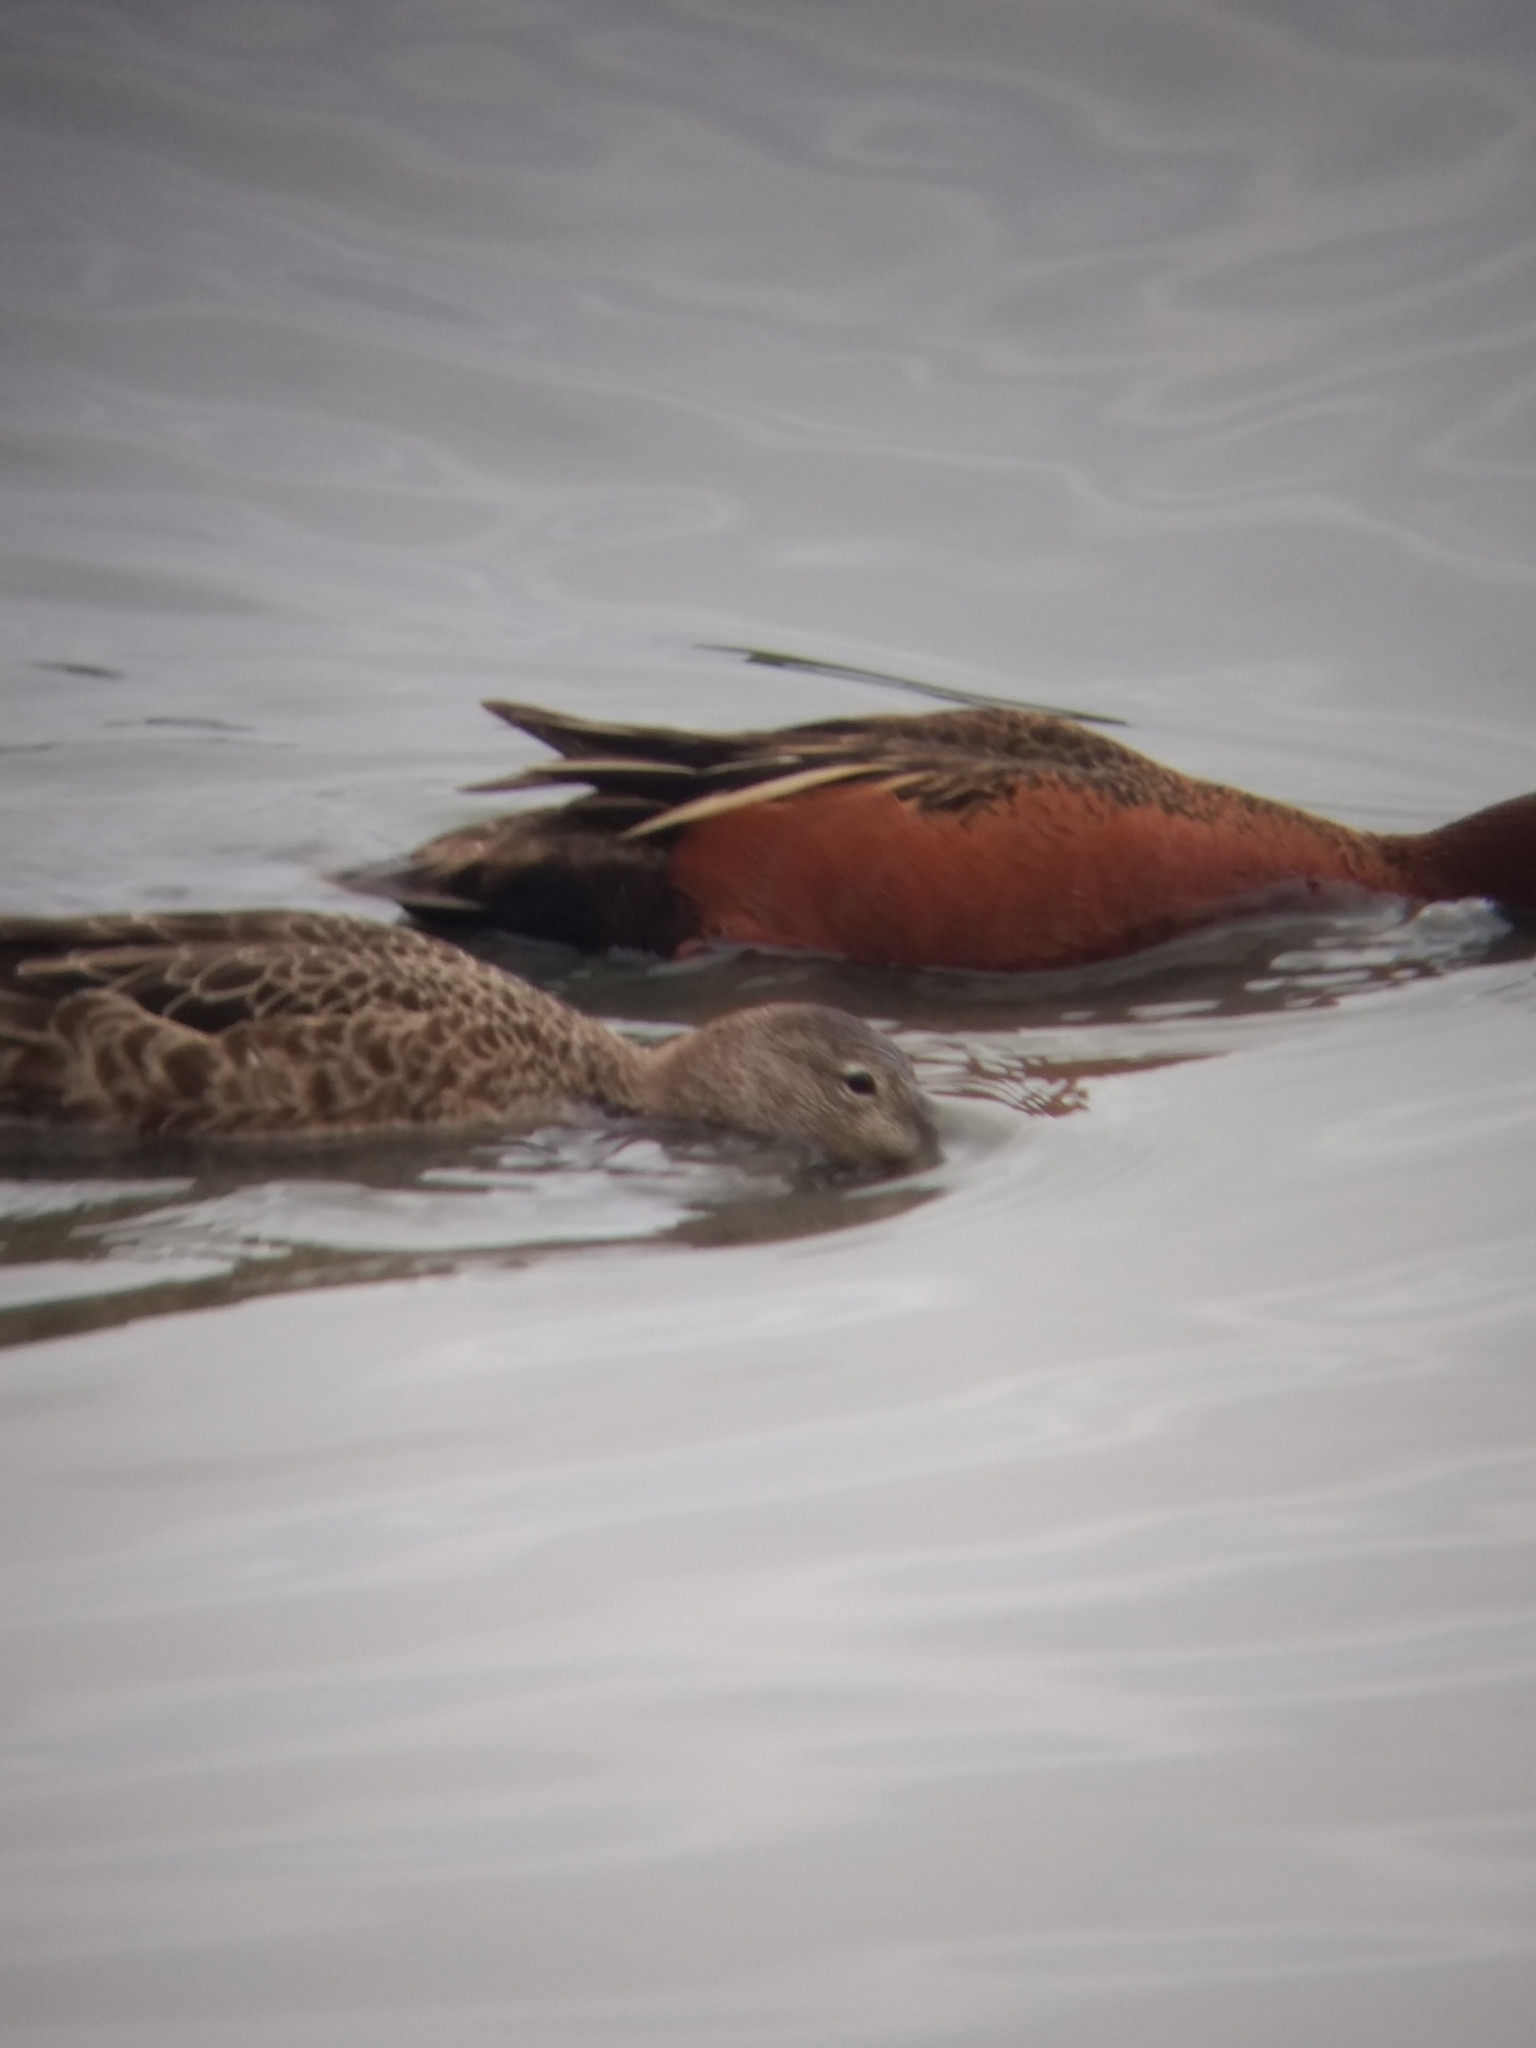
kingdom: Animalia
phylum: Chordata
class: Aves
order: Anseriformes
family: Anatidae
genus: Spatula
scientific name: Spatula cyanoptera
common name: Cinnamon teal
